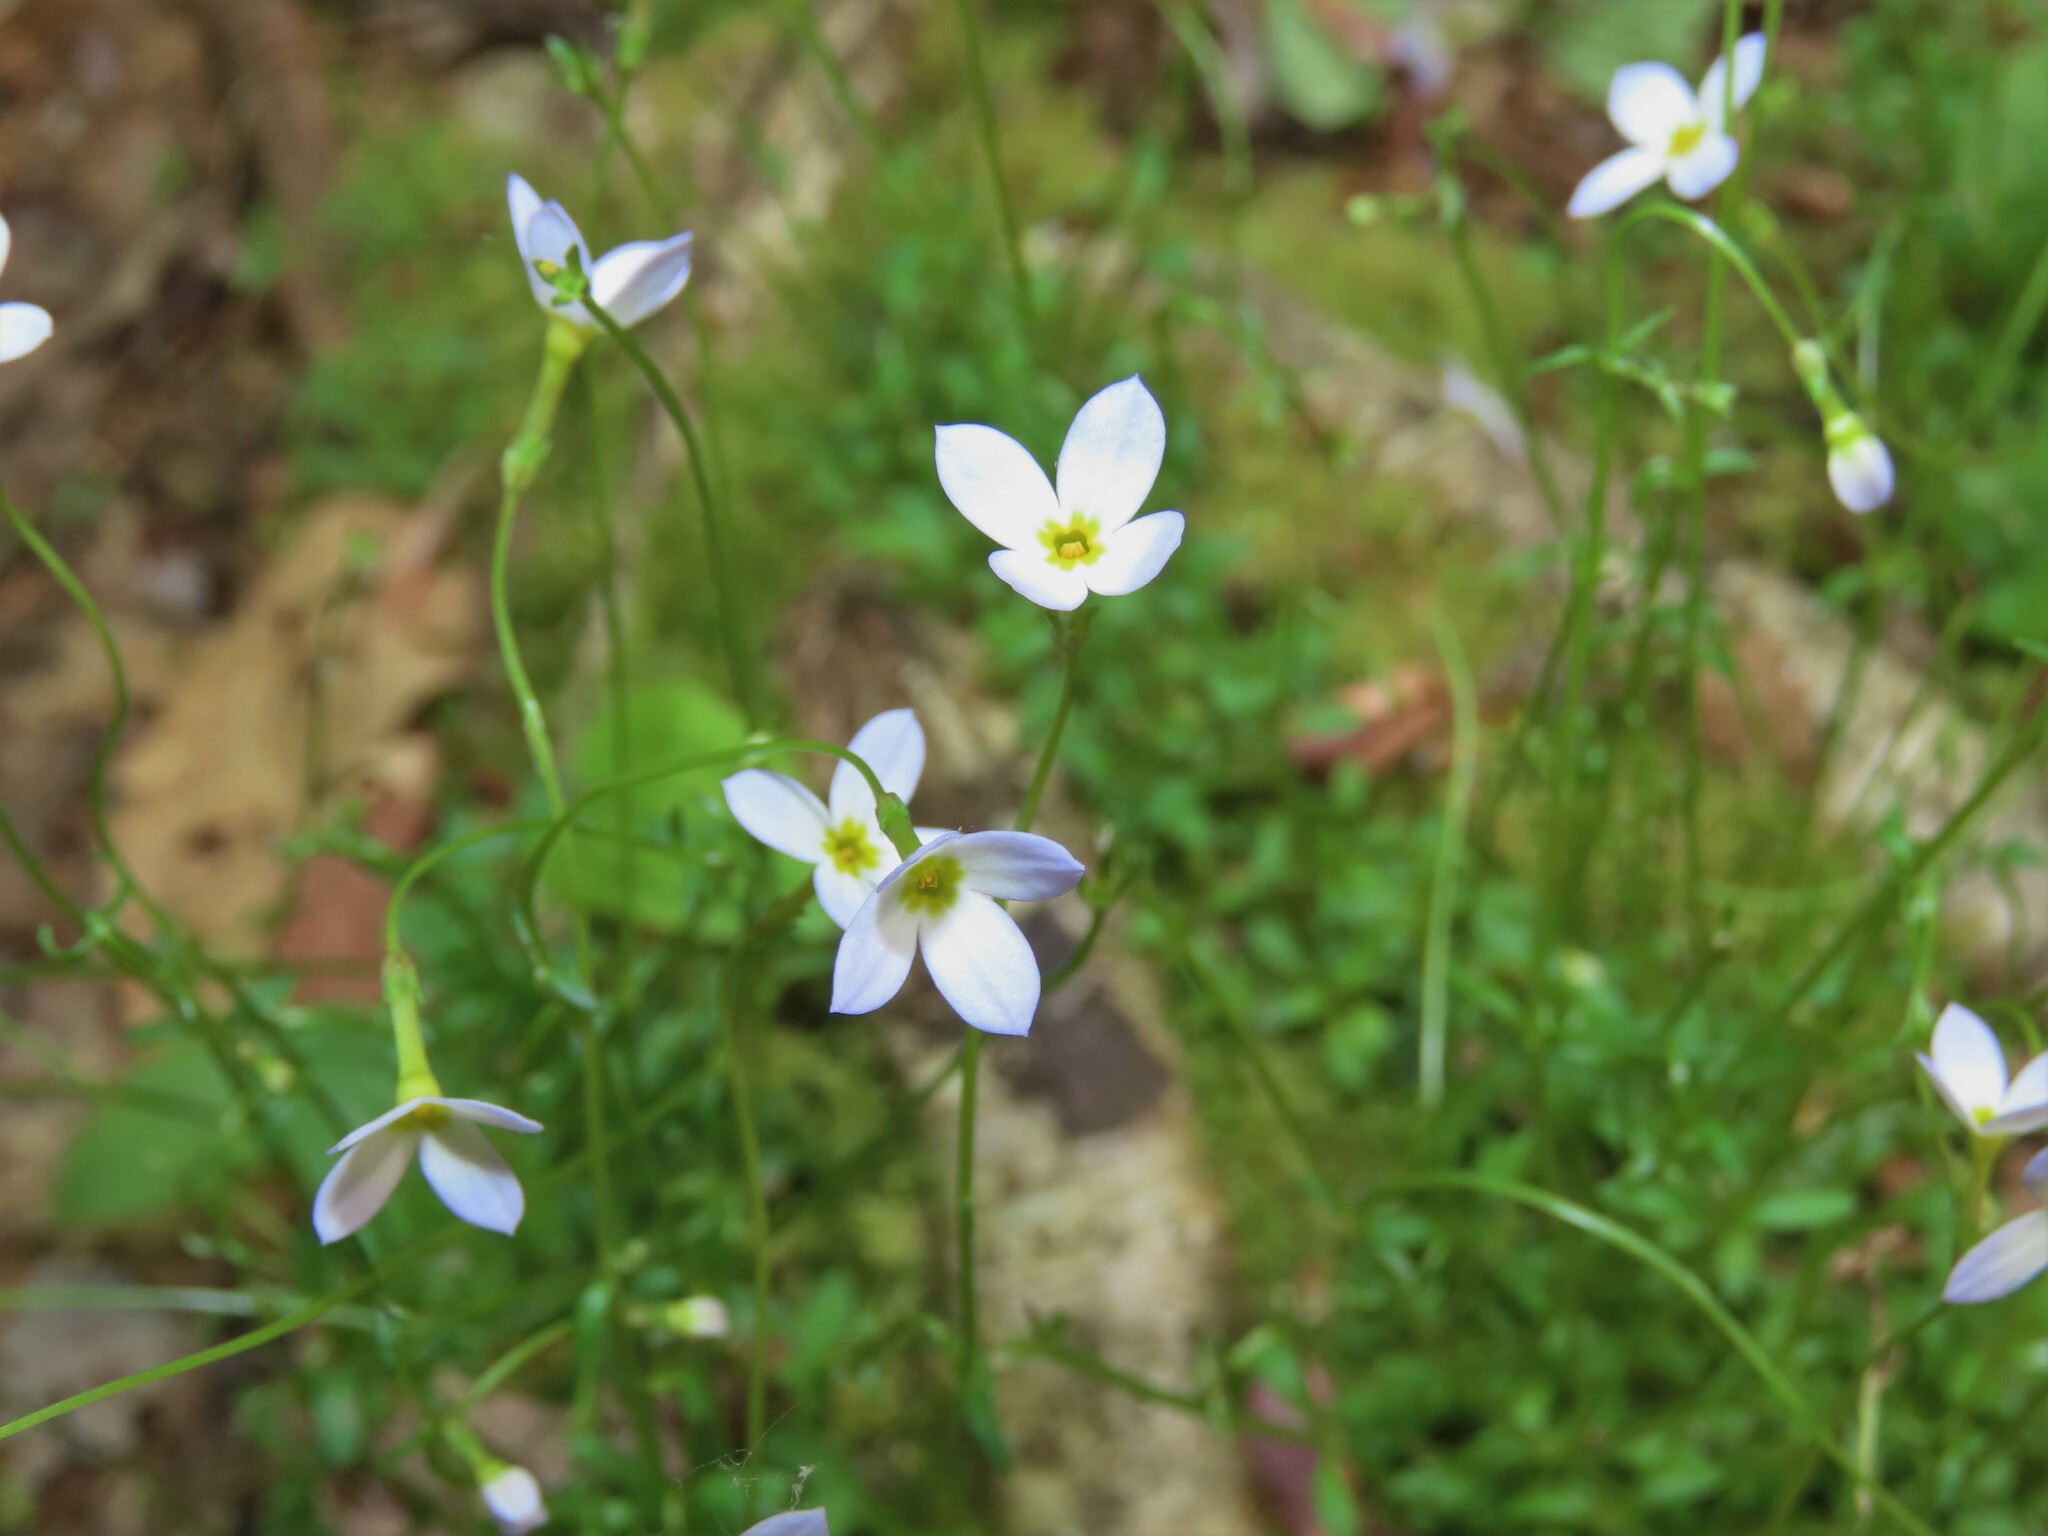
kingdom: Plantae
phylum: Tracheophyta
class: Magnoliopsida
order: Gentianales
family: Rubiaceae
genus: Houstonia
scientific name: Houstonia caerulea
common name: Bluets
